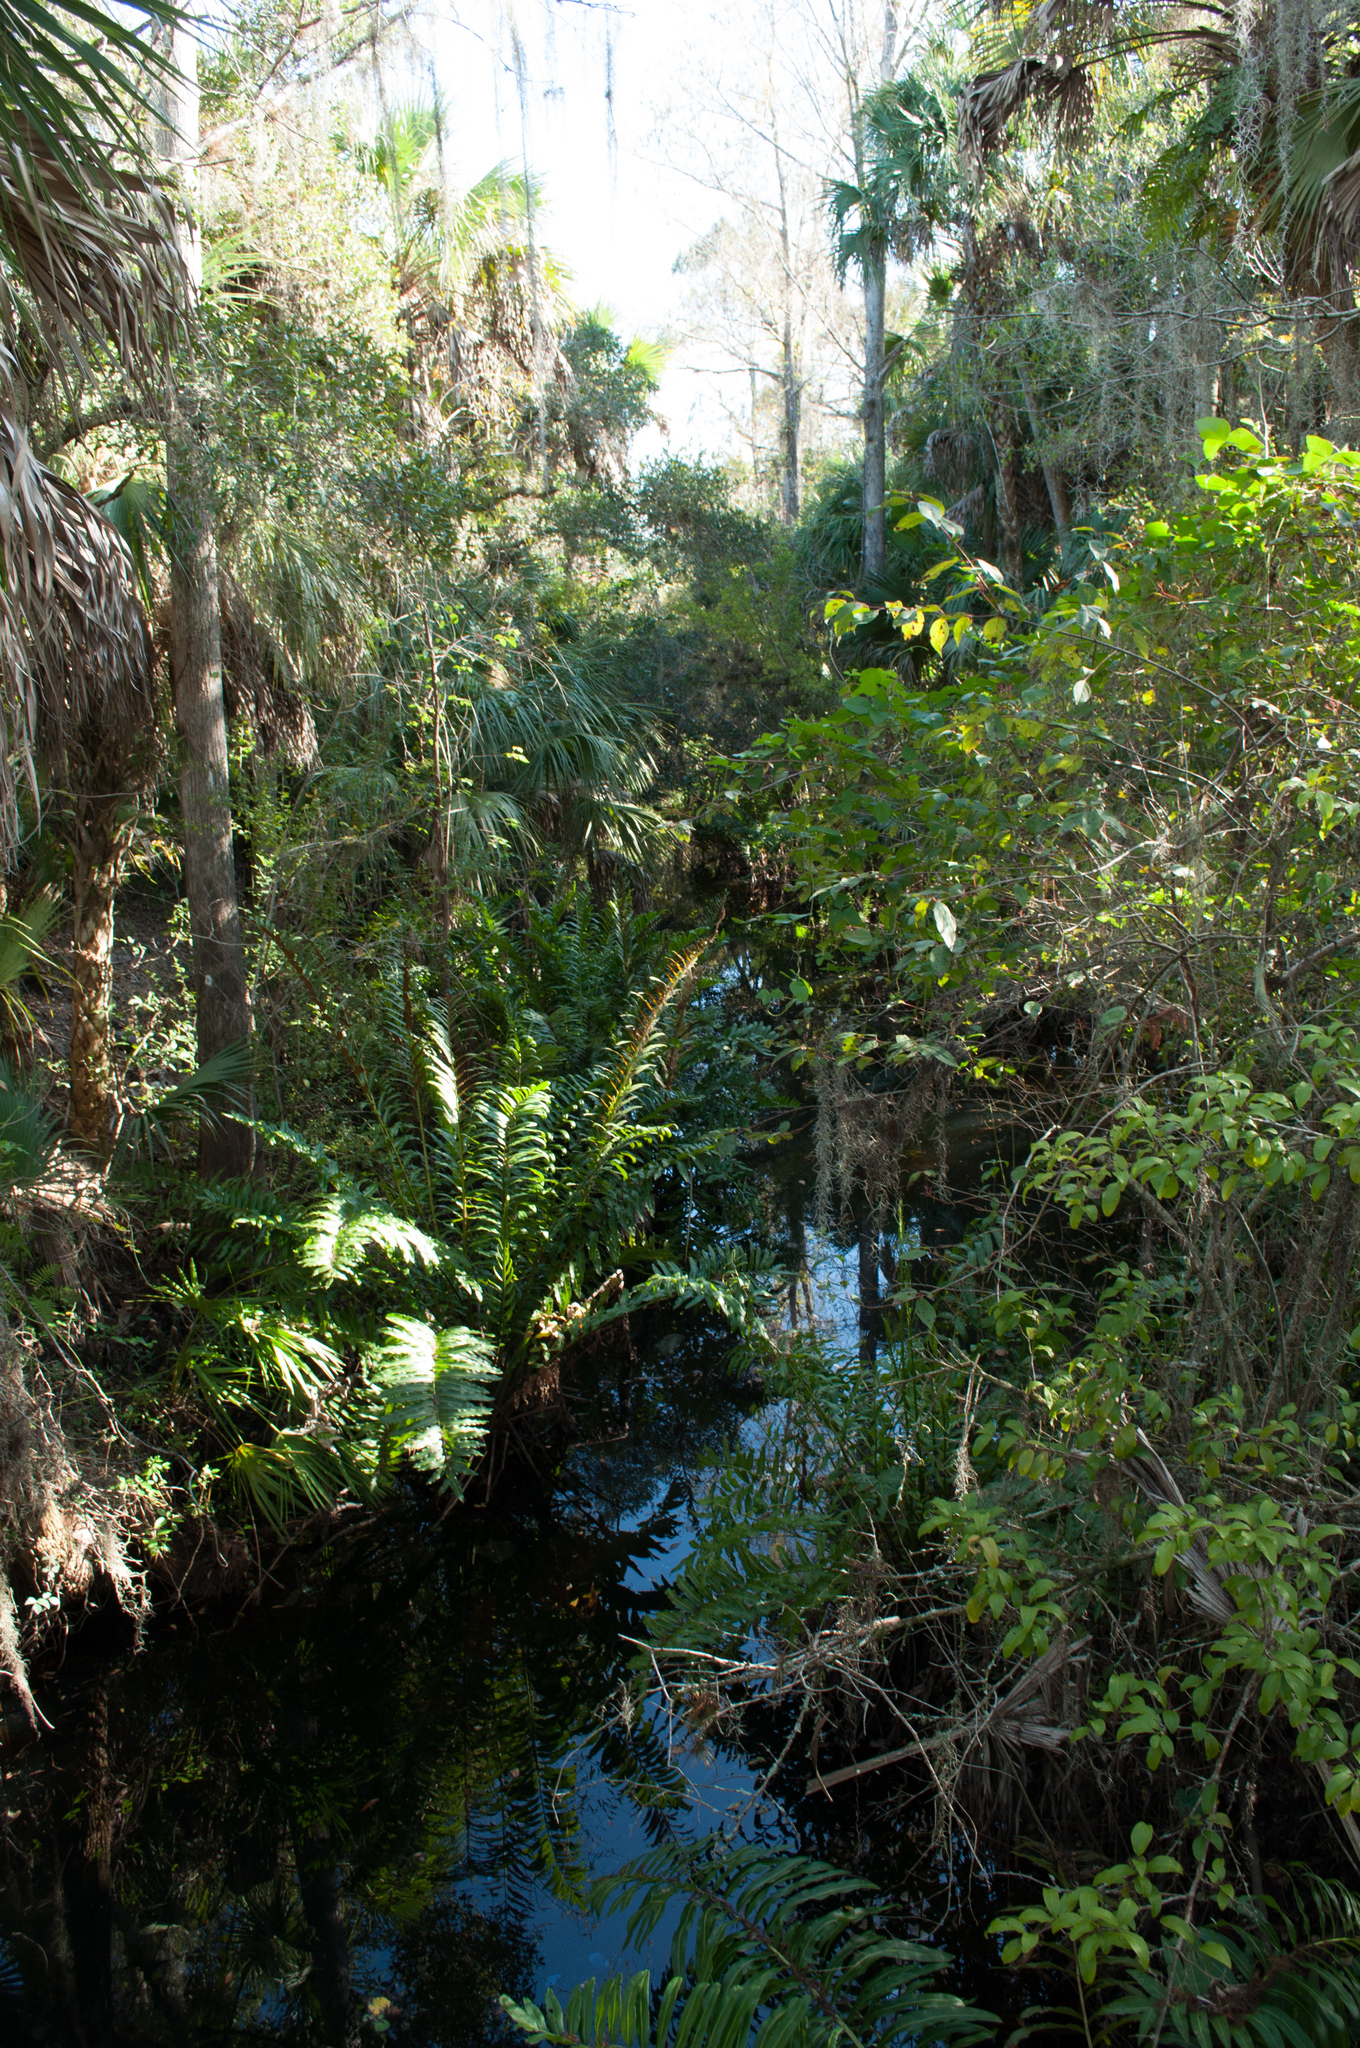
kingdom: Plantae
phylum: Tracheophyta
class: Polypodiopsida
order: Polypodiales
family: Pteridaceae
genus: Acrostichum
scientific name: Acrostichum danaeifolium
